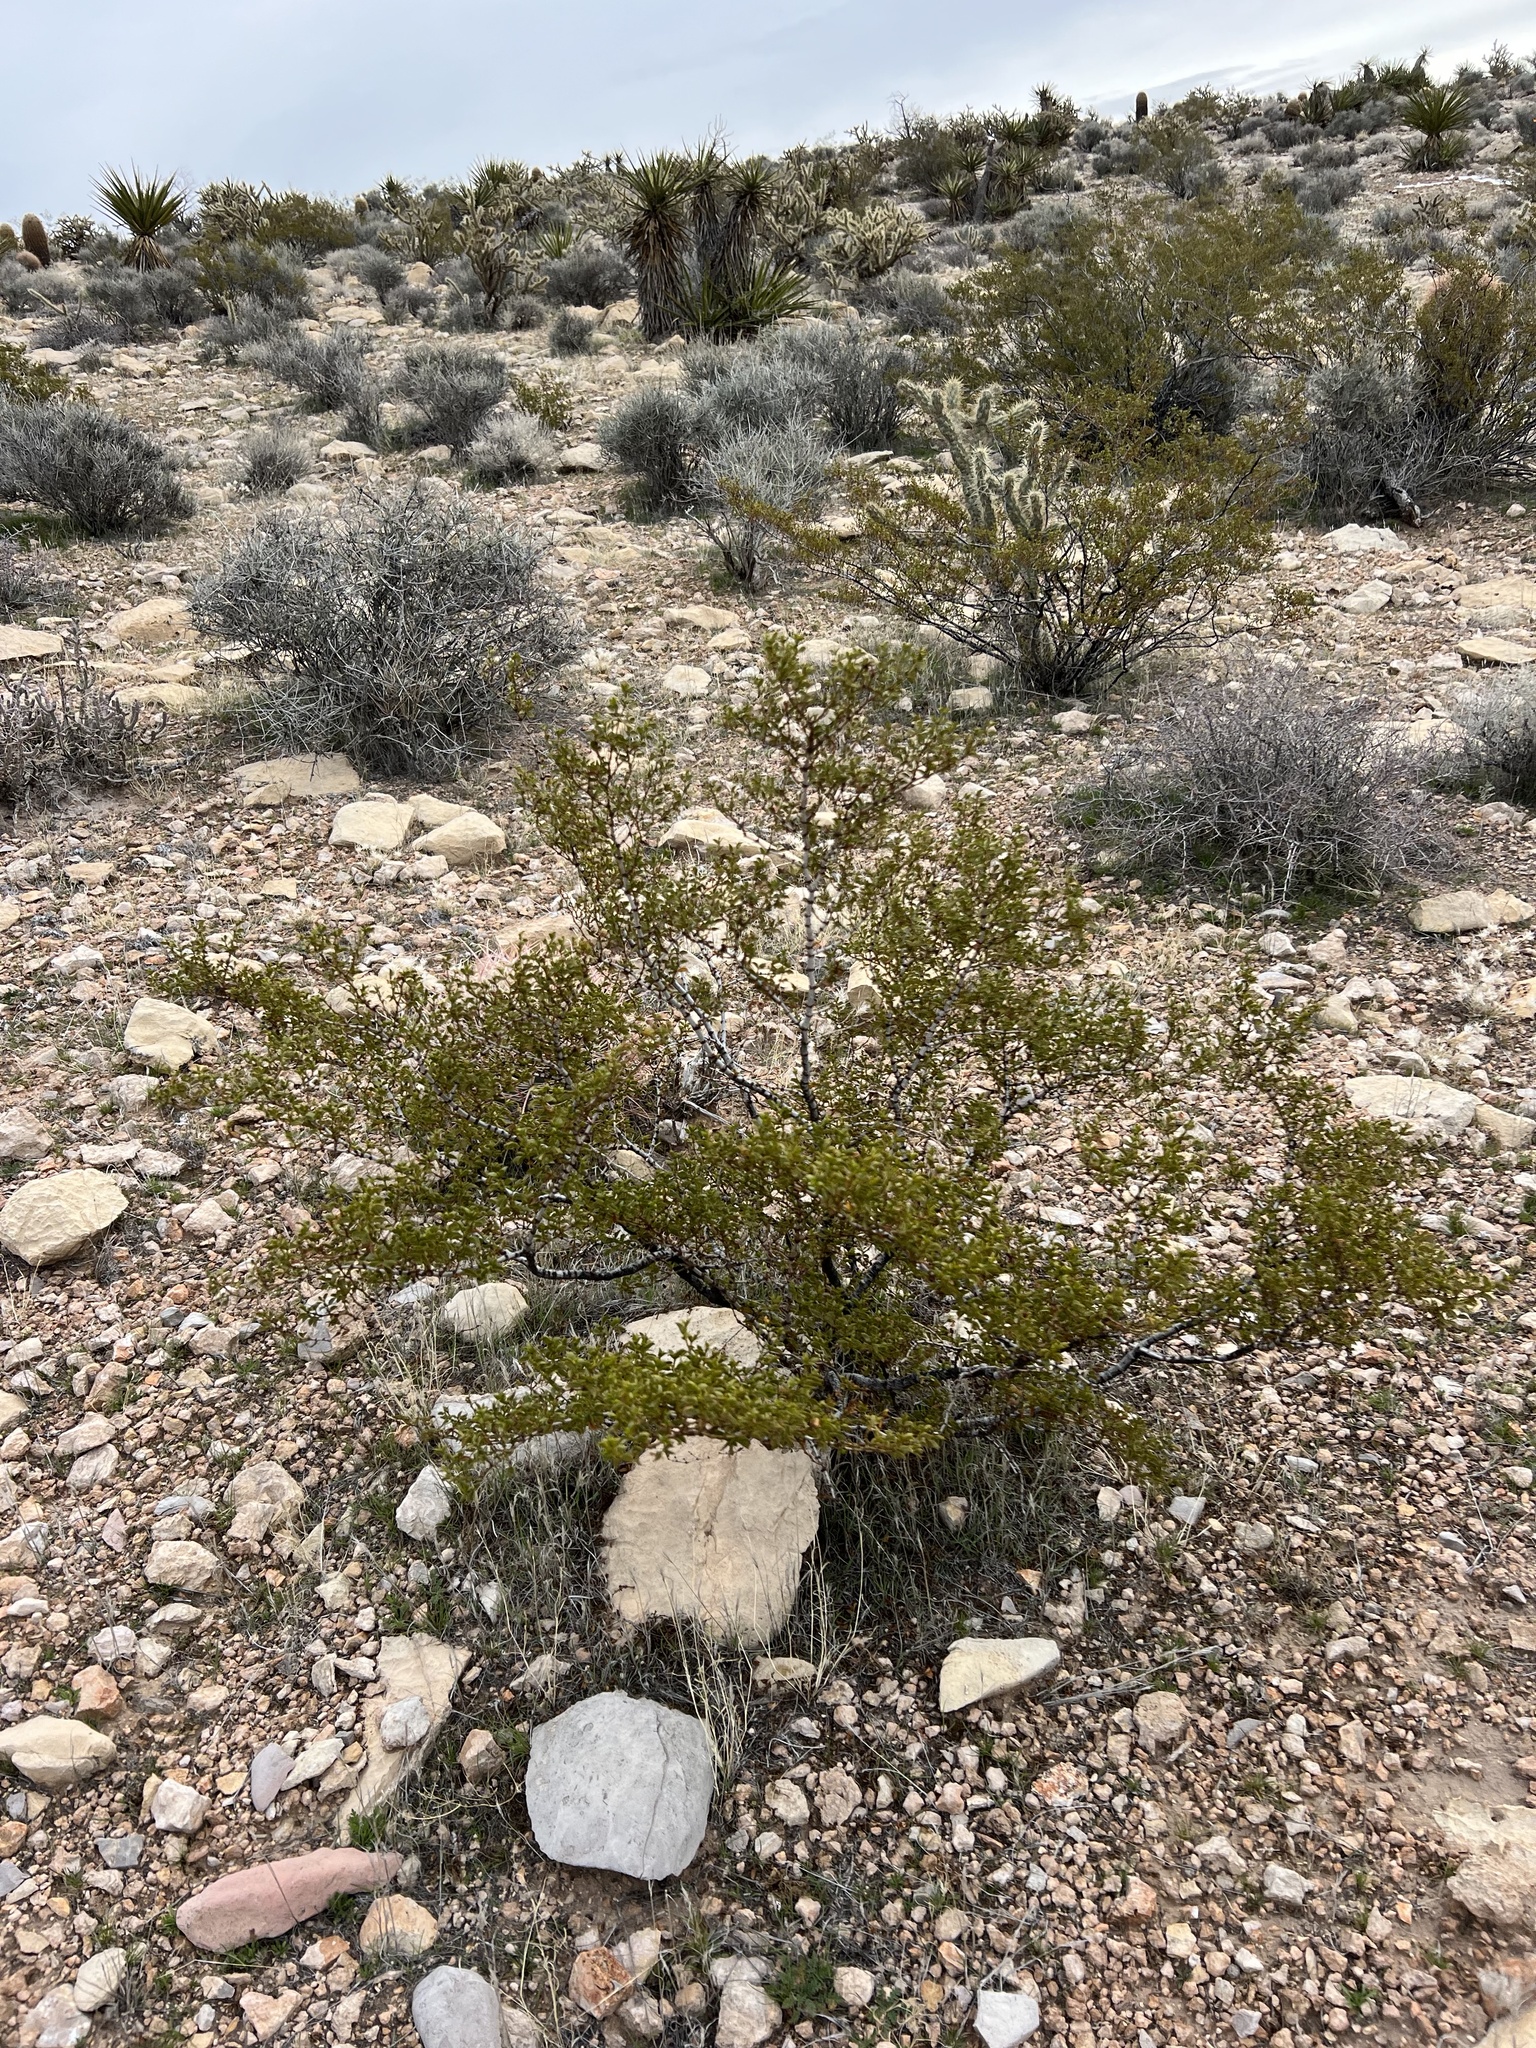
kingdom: Plantae
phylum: Tracheophyta
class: Magnoliopsida
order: Zygophyllales
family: Zygophyllaceae
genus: Larrea
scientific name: Larrea tridentata
